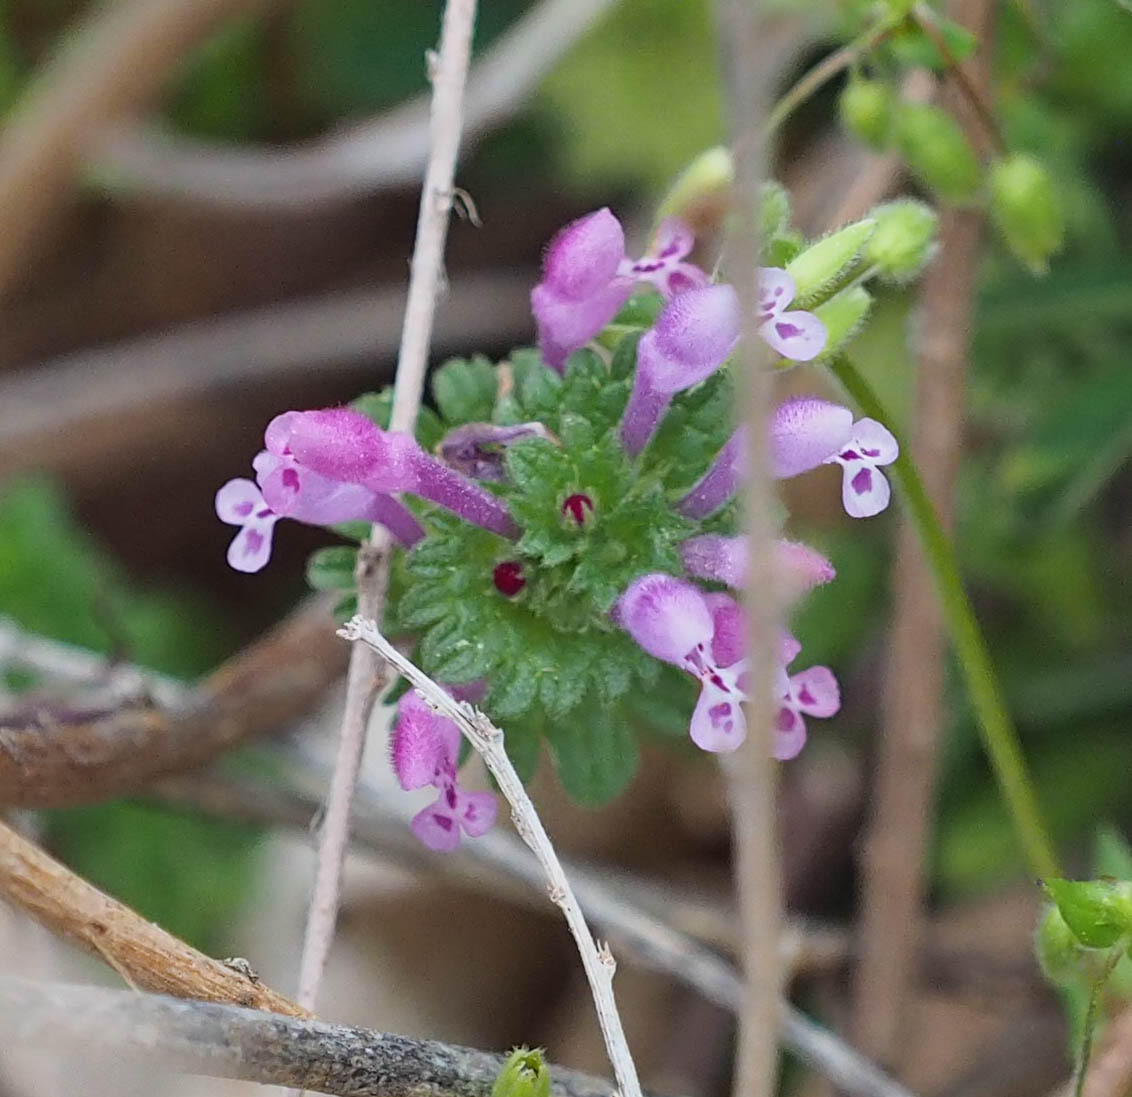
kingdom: Plantae
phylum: Tracheophyta
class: Magnoliopsida
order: Lamiales
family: Lamiaceae
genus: Lamium
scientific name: Lamium amplexicaule
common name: Henbit dead-nettle
